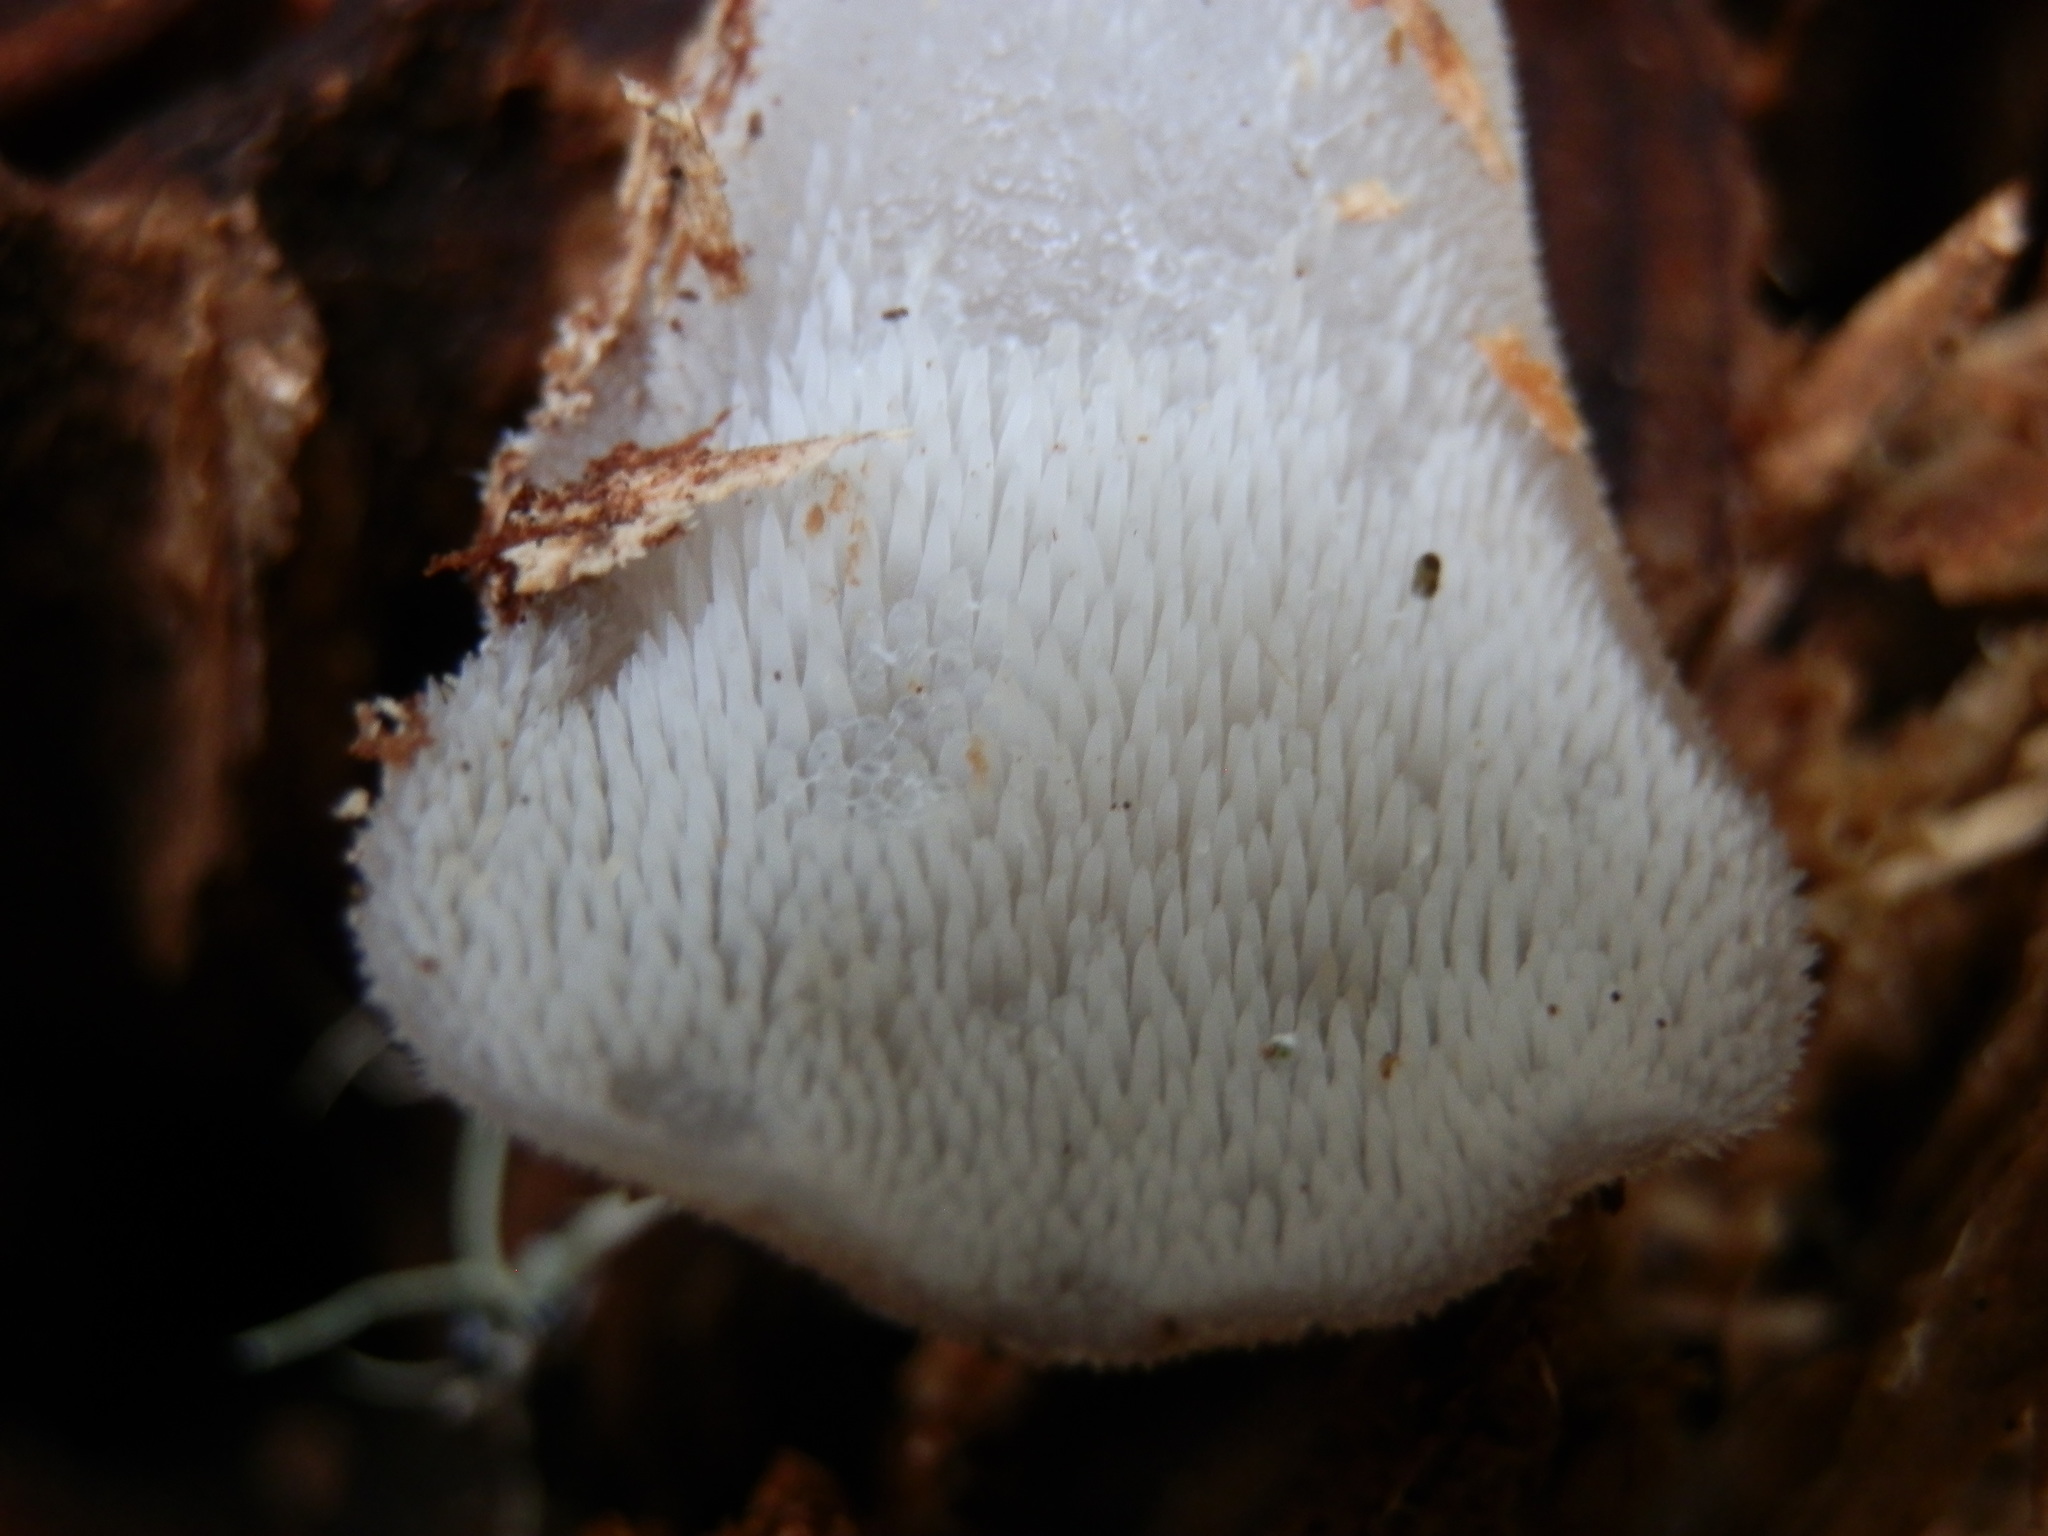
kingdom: Fungi
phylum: Basidiomycota
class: Agaricomycetes
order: Auriculariales
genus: Pseudohydnum
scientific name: Pseudohydnum gelatinosum
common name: Jelly tongue
